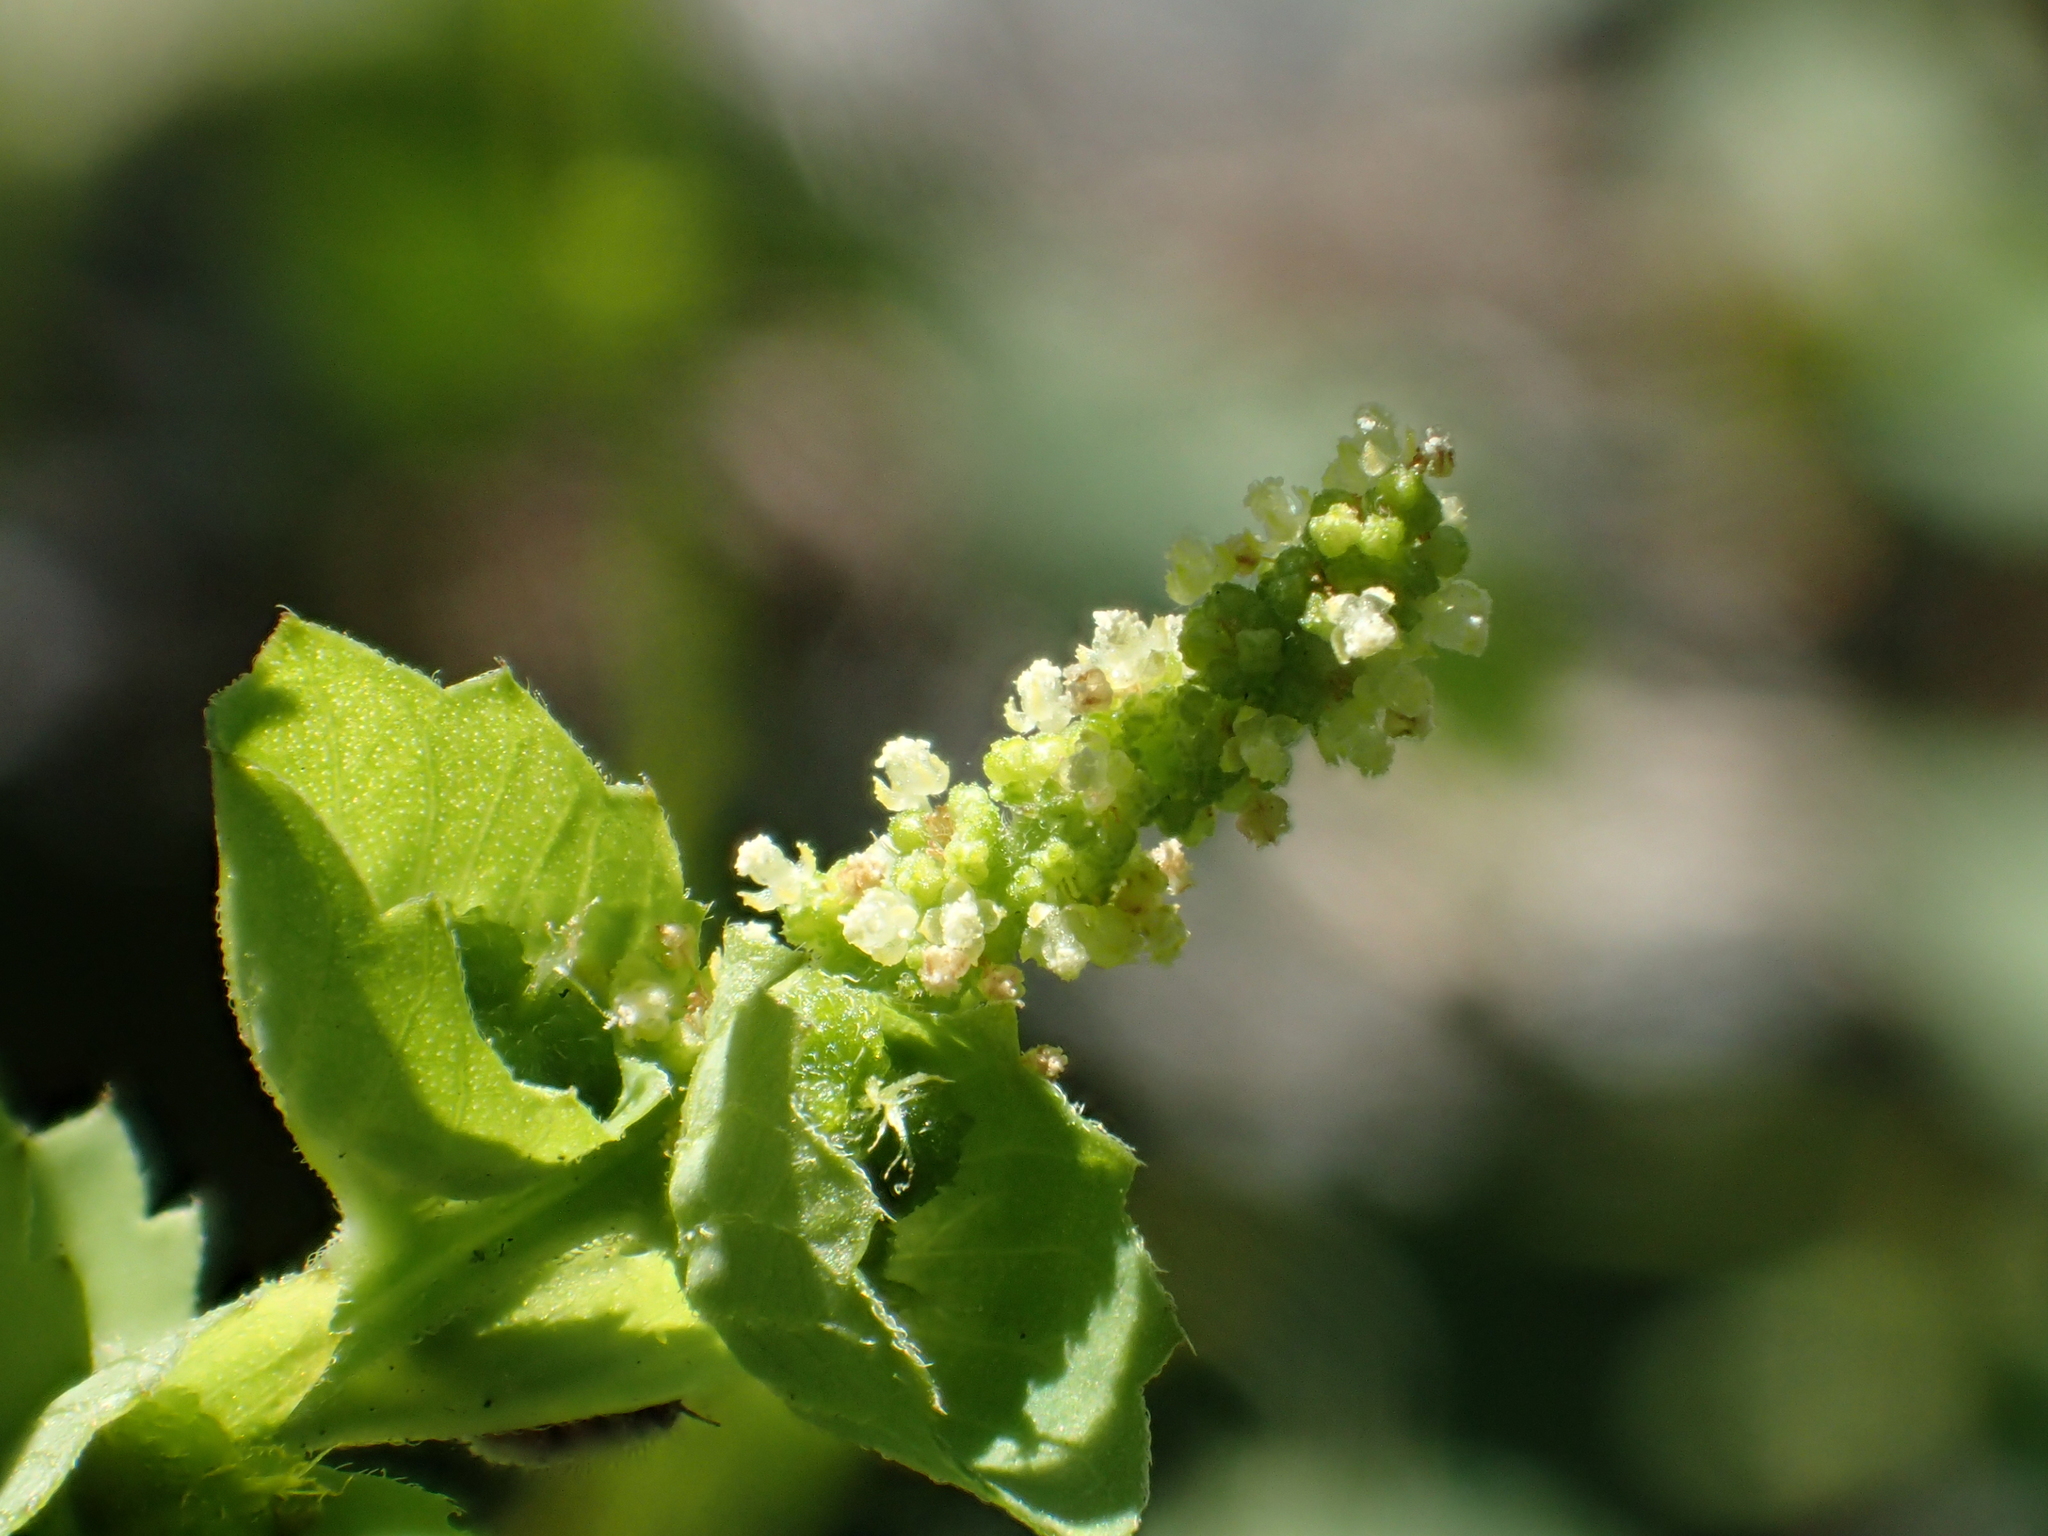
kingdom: Plantae
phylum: Tracheophyta
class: Magnoliopsida
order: Malpighiales
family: Euphorbiaceae
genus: Acalypha
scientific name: Acalypha indica
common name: Indian acalypha
